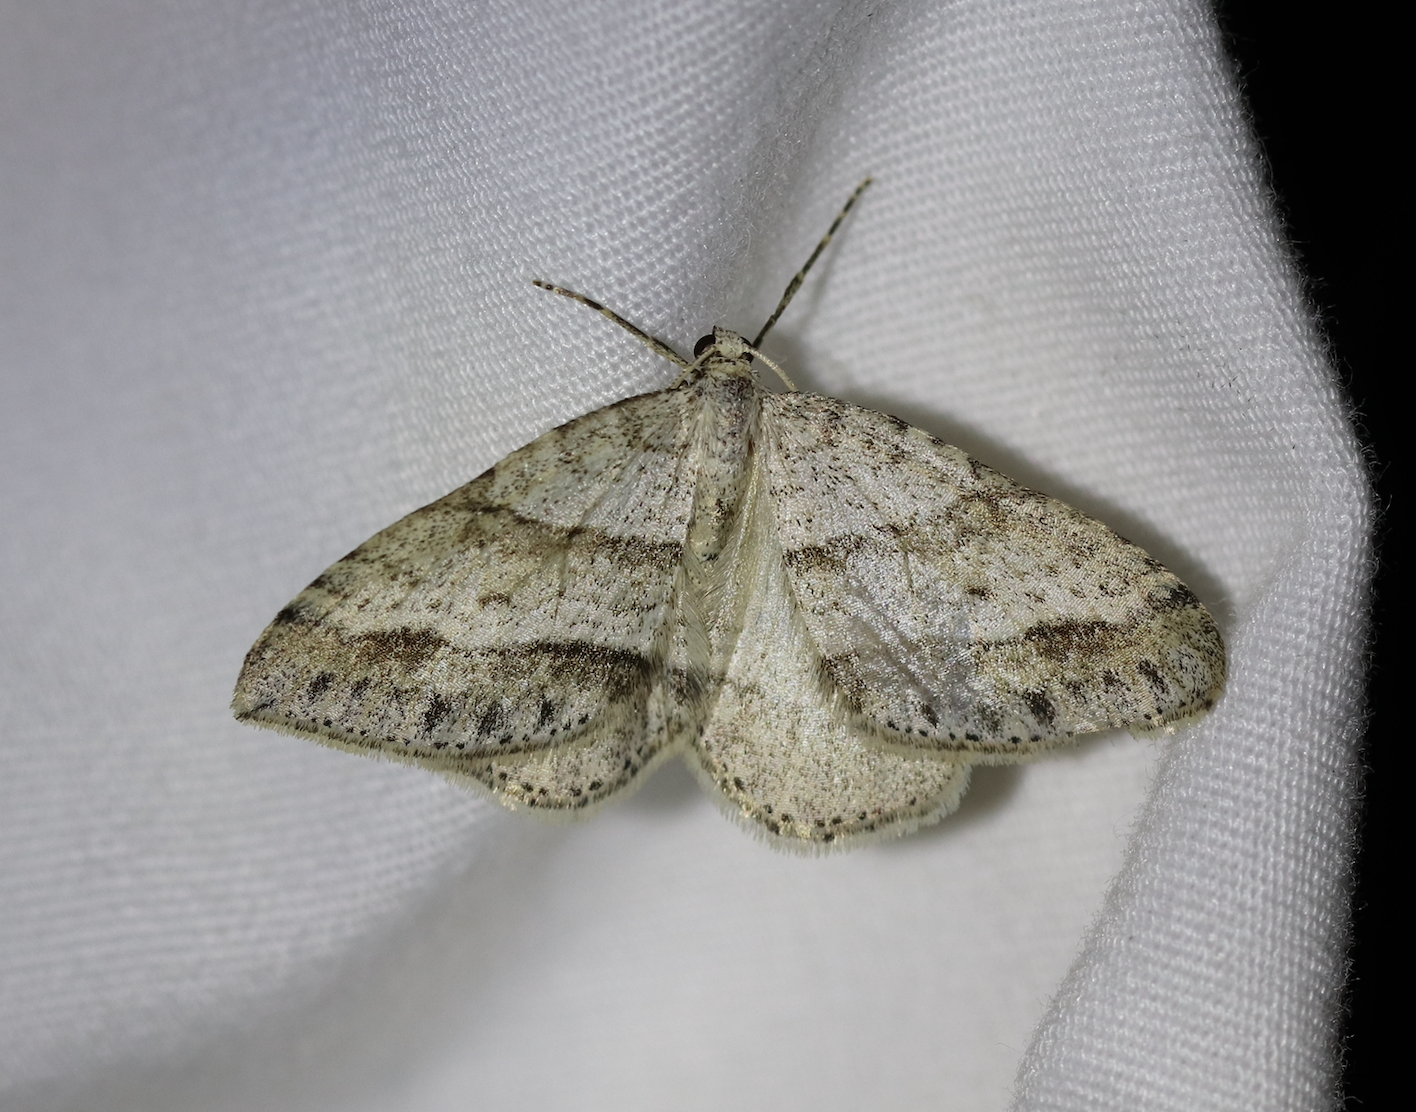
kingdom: Animalia
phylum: Arthropoda
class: Insecta
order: Lepidoptera
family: Geometridae
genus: Perizoma
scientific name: Perizoma parallelolineata
